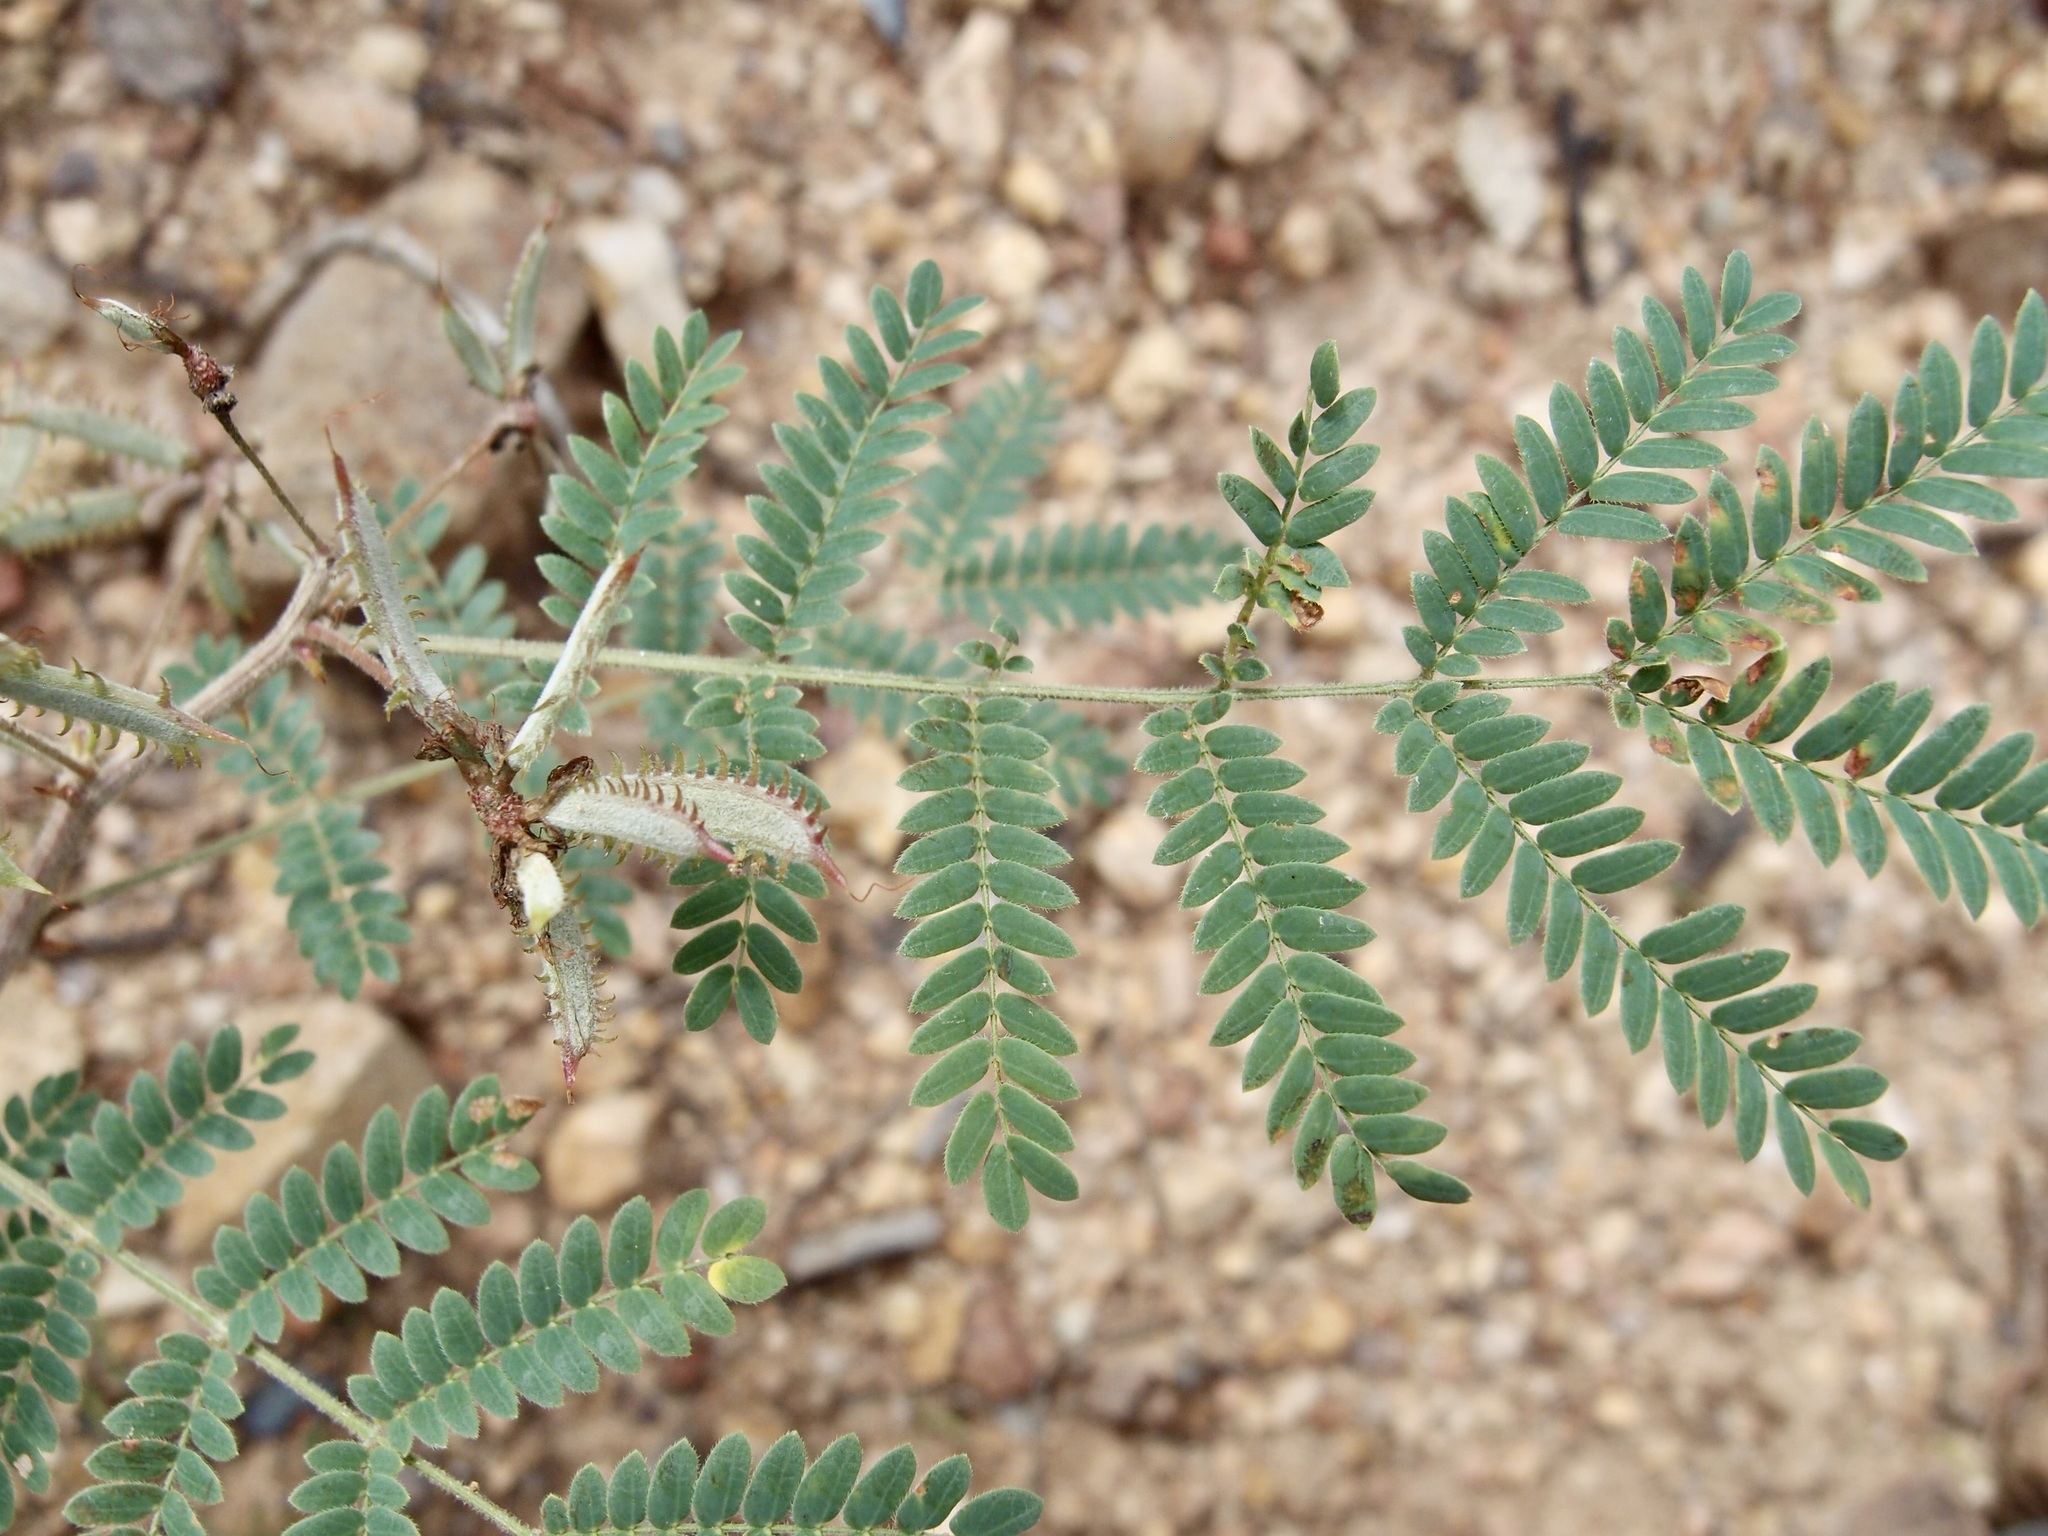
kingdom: Plantae
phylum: Tracheophyta
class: Magnoliopsida
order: Fabales
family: Fabaceae
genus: Mimosa
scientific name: Mimosa grahamii
